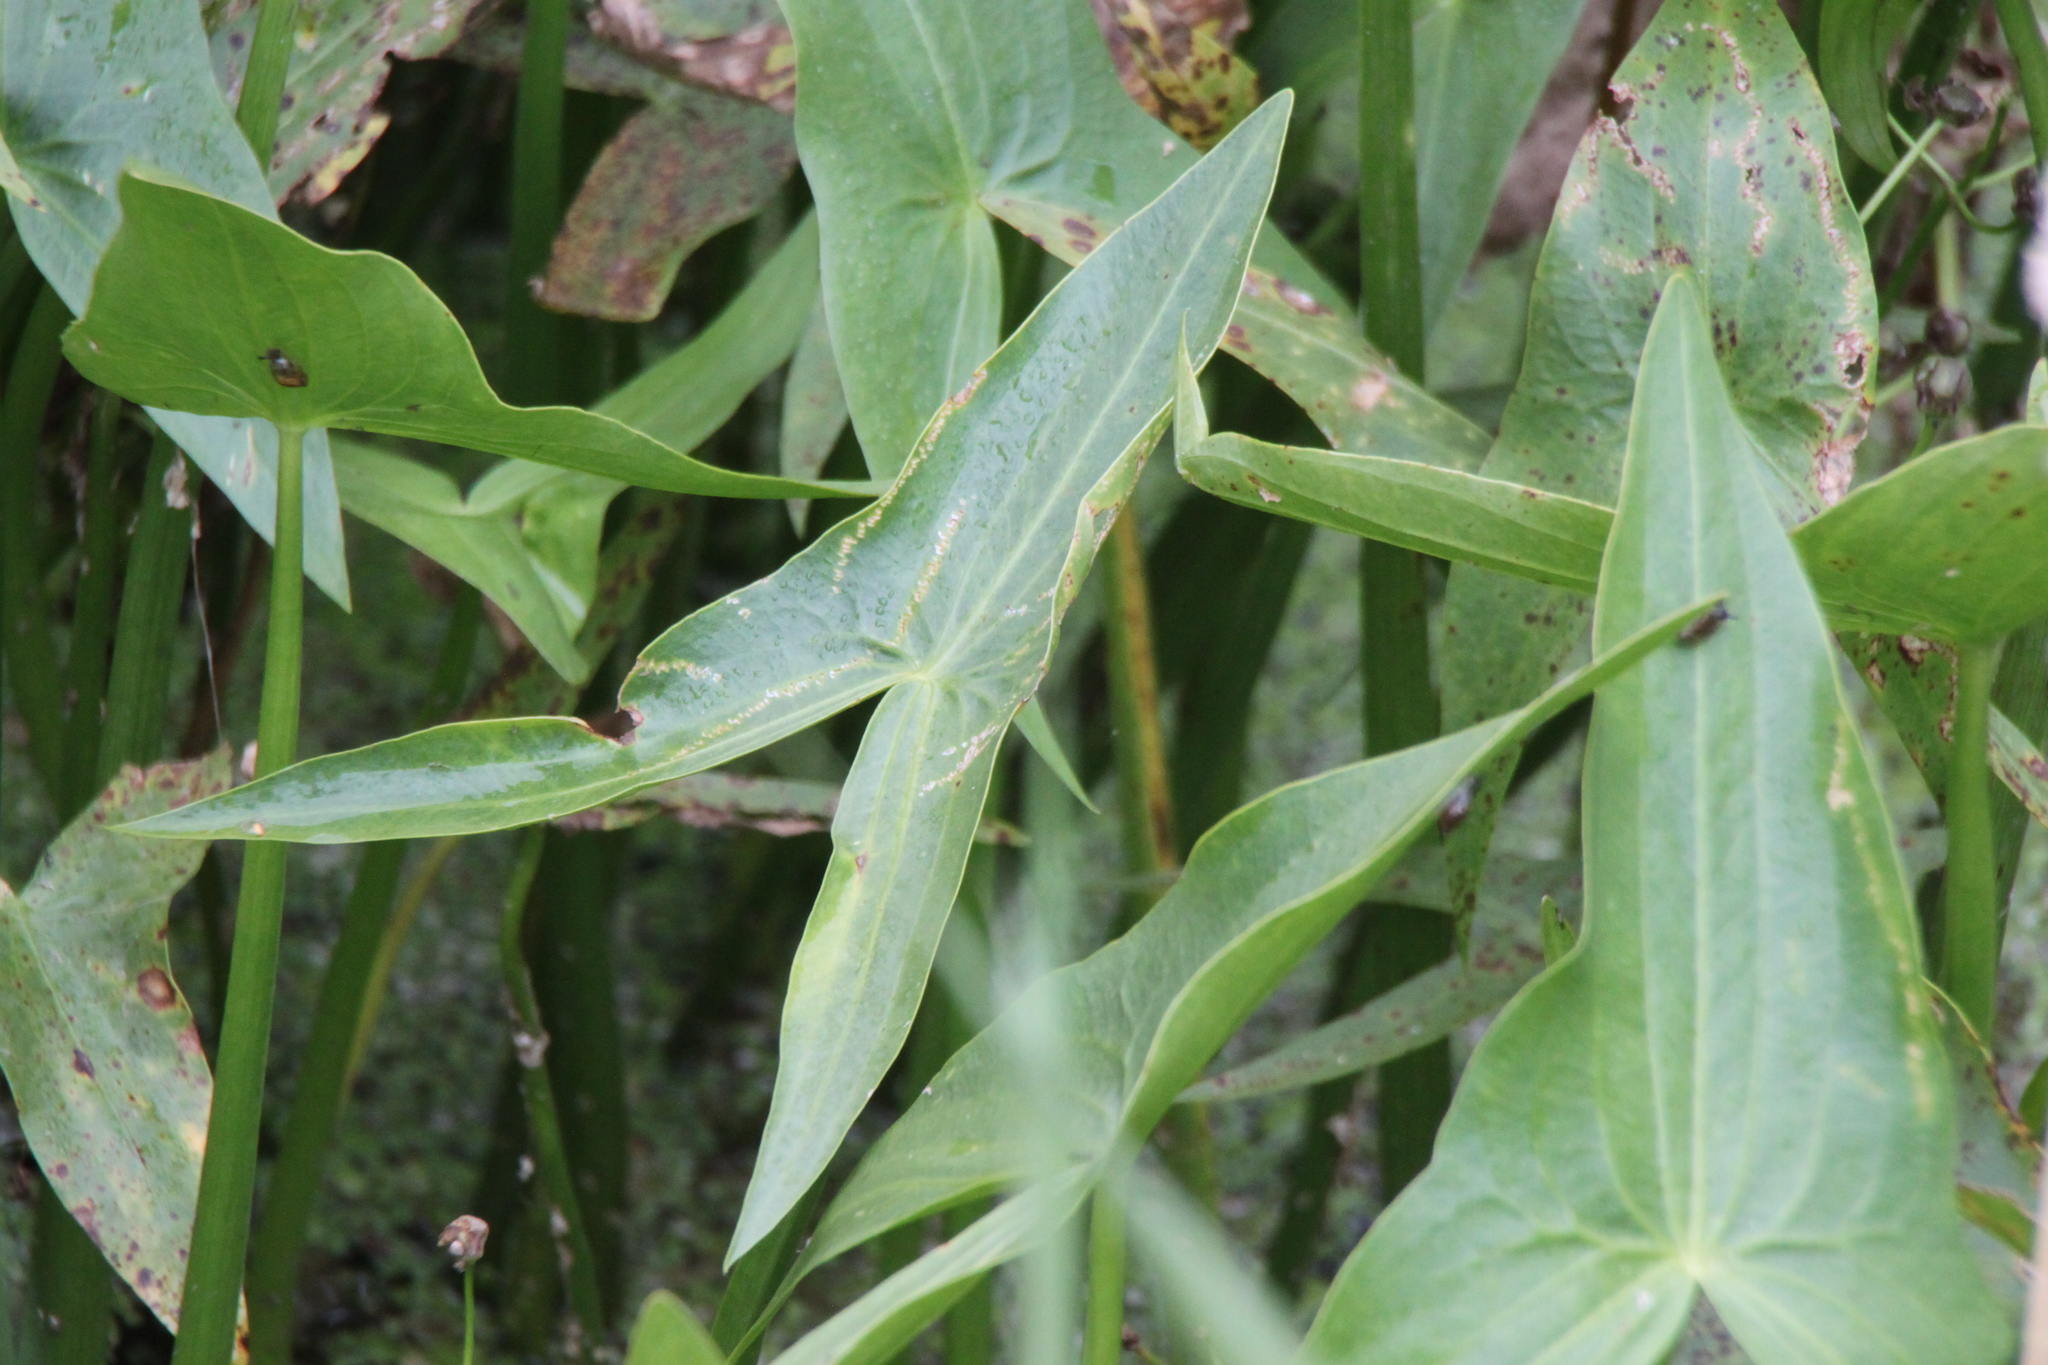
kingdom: Plantae
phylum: Tracheophyta
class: Liliopsida
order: Alismatales
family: Alismataceae
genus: Sagittaria
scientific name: Sagittaria sagittifolia
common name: Arrowhead
